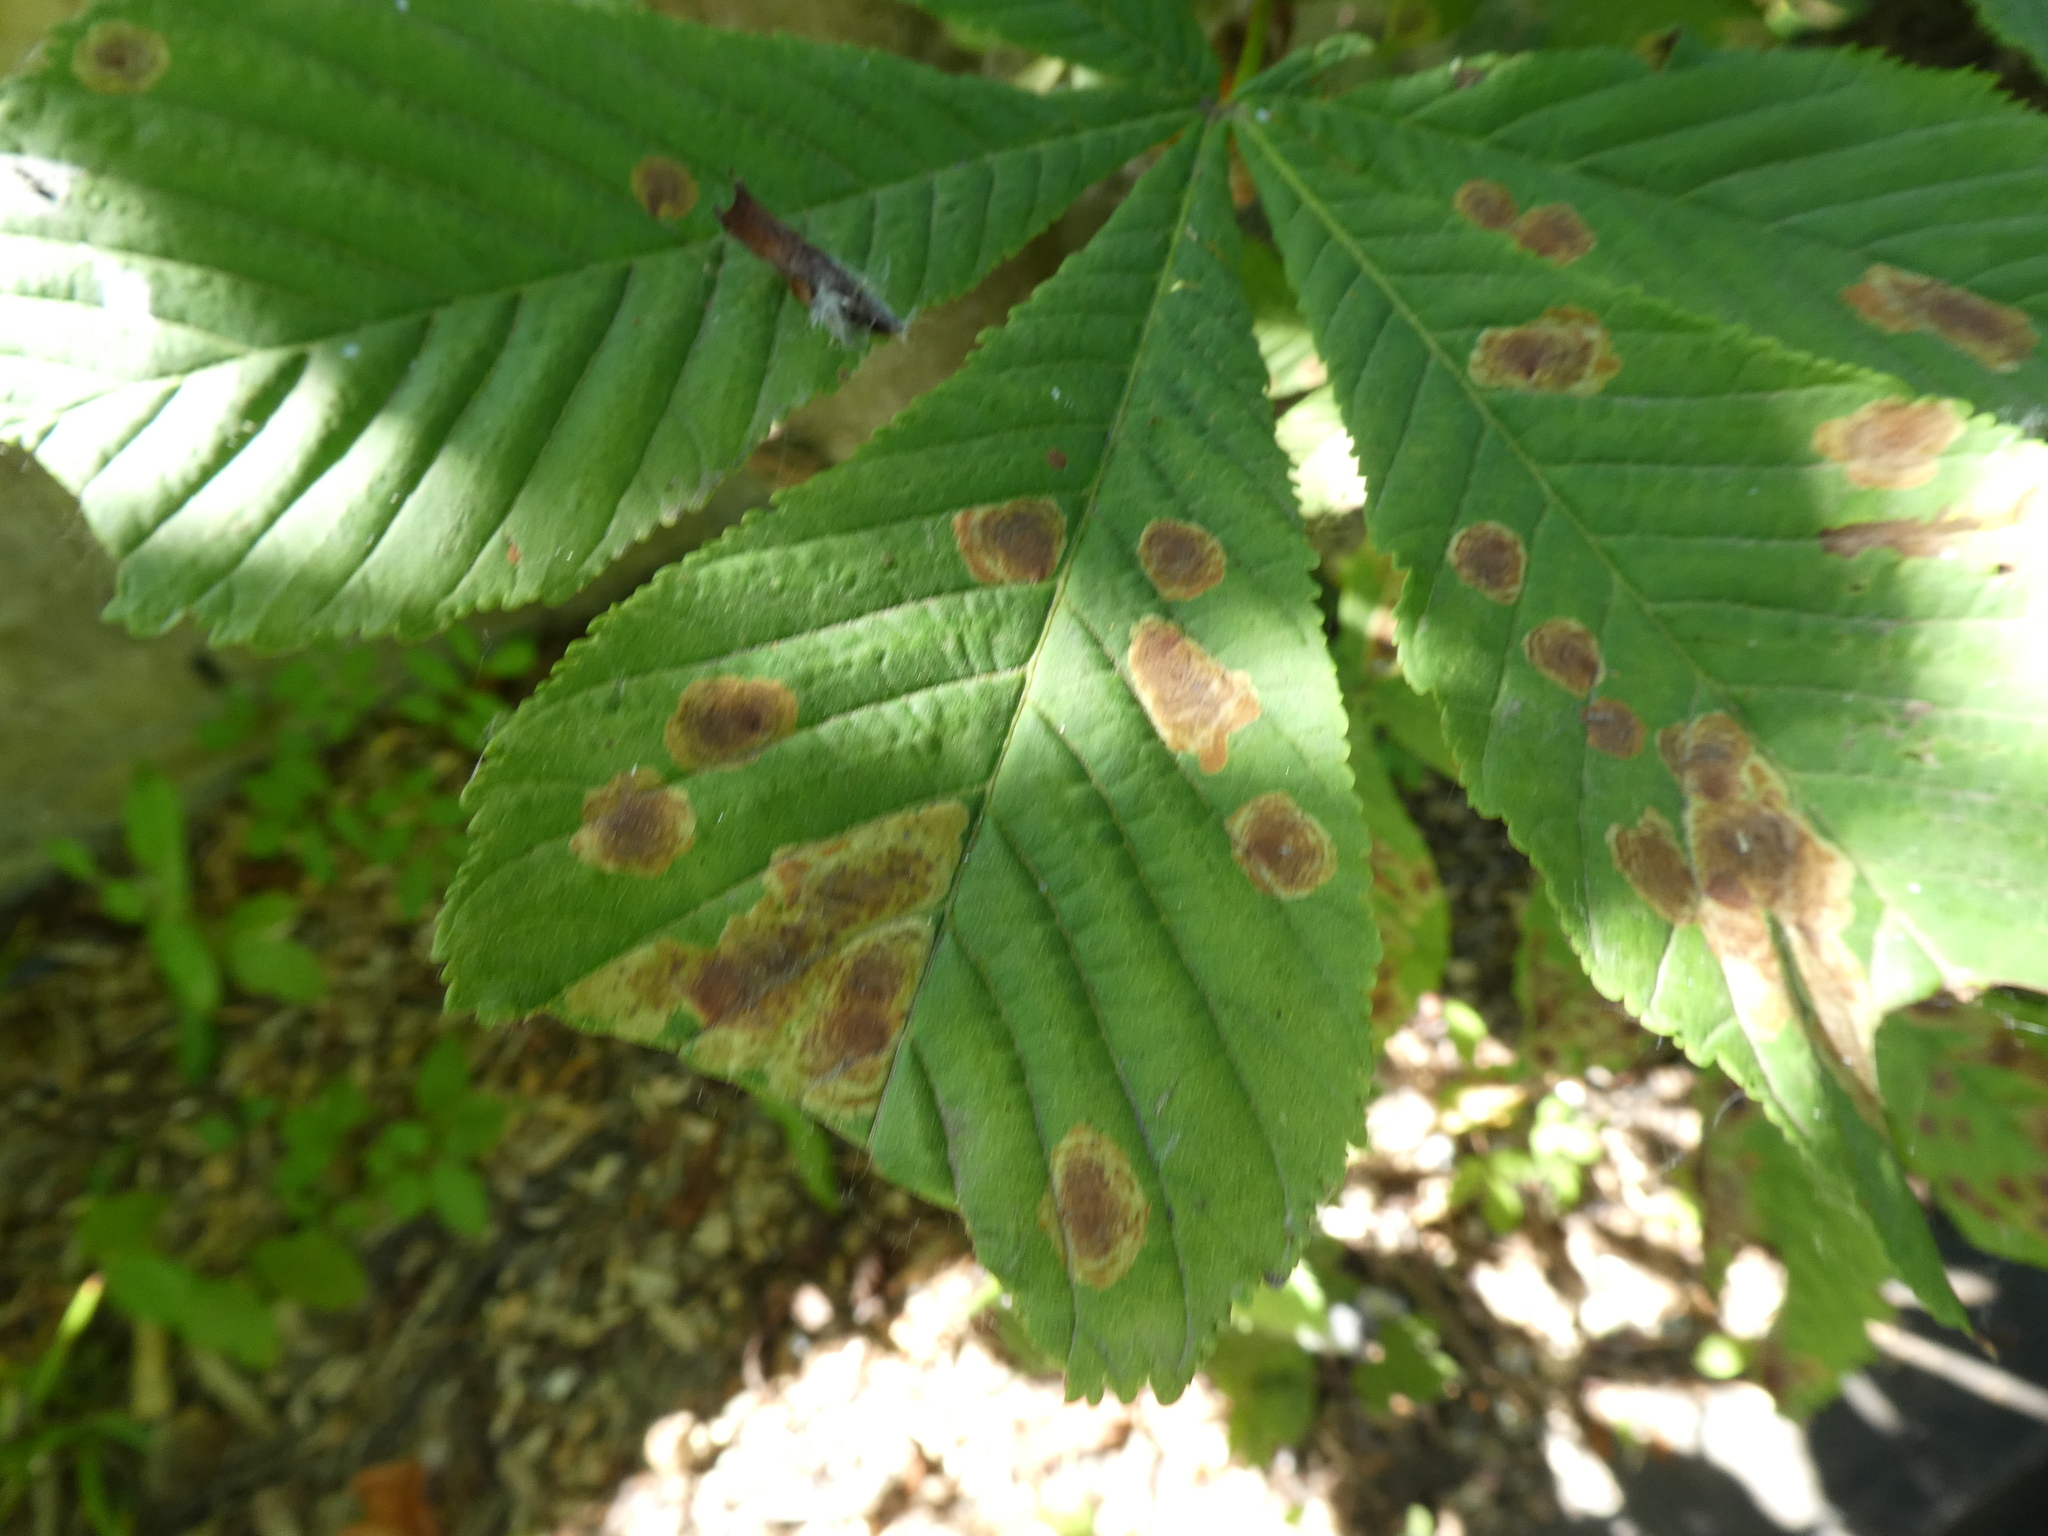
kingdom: Animalia
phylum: Arthropoda
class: Insecta
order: Lepidoptera
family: Gracillariidae
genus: Cameraria
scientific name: Cameraria ohridella
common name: Horse-chestnut leaf-miner
